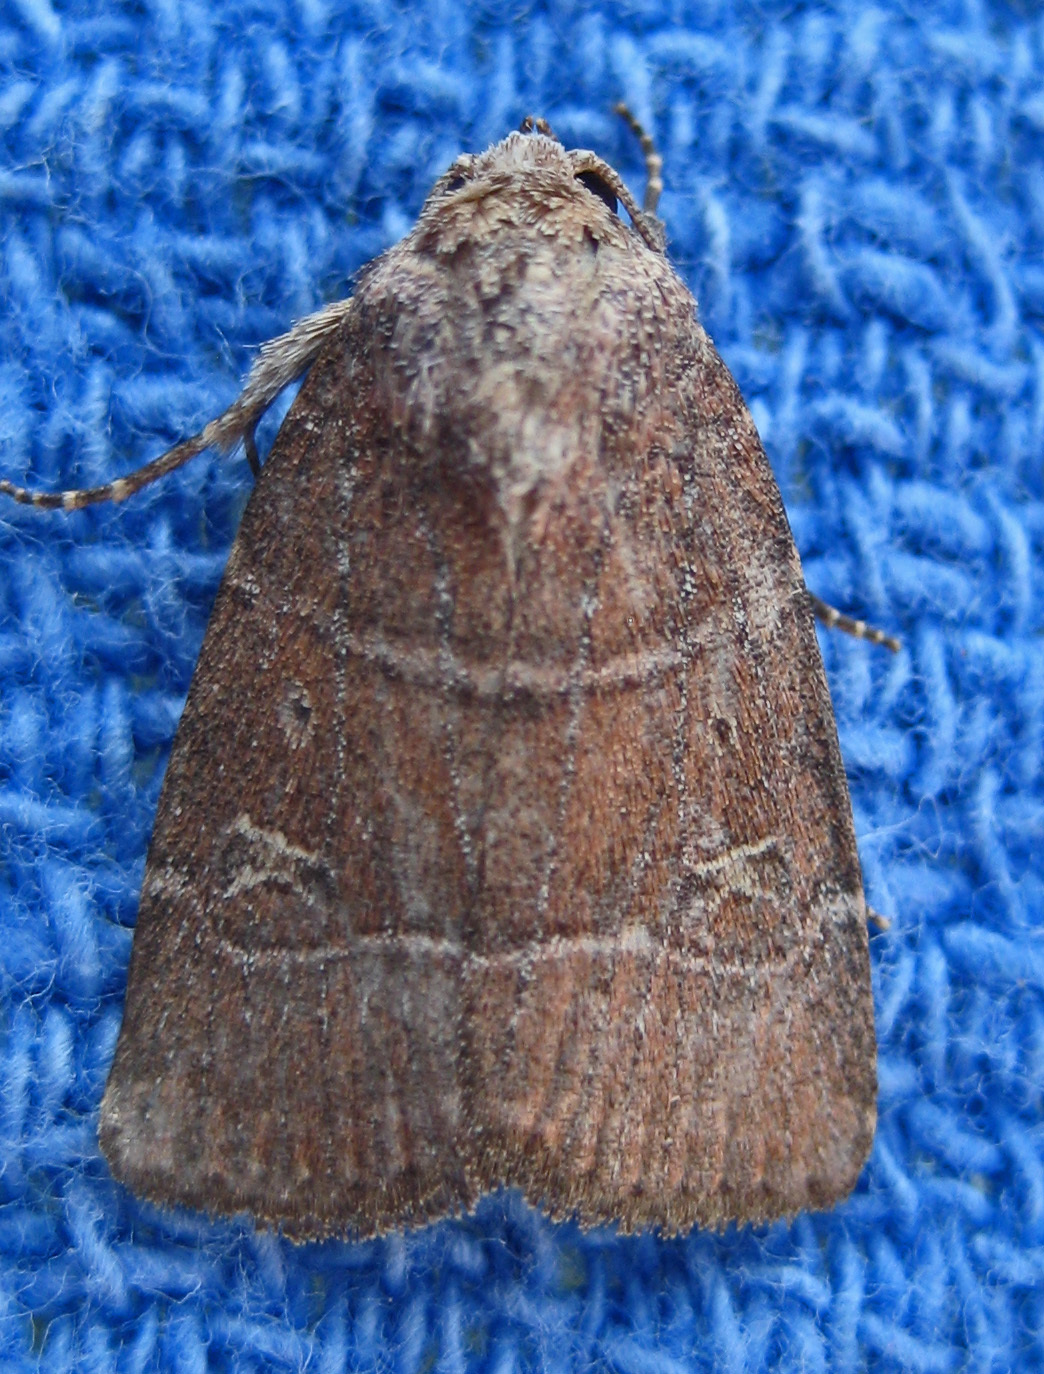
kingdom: Animalia
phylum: Arthropoda
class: Insecta
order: Lepidoptera
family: Noctuidae
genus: Elaphria
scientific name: Elaphria grata
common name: Grateful midget moth
